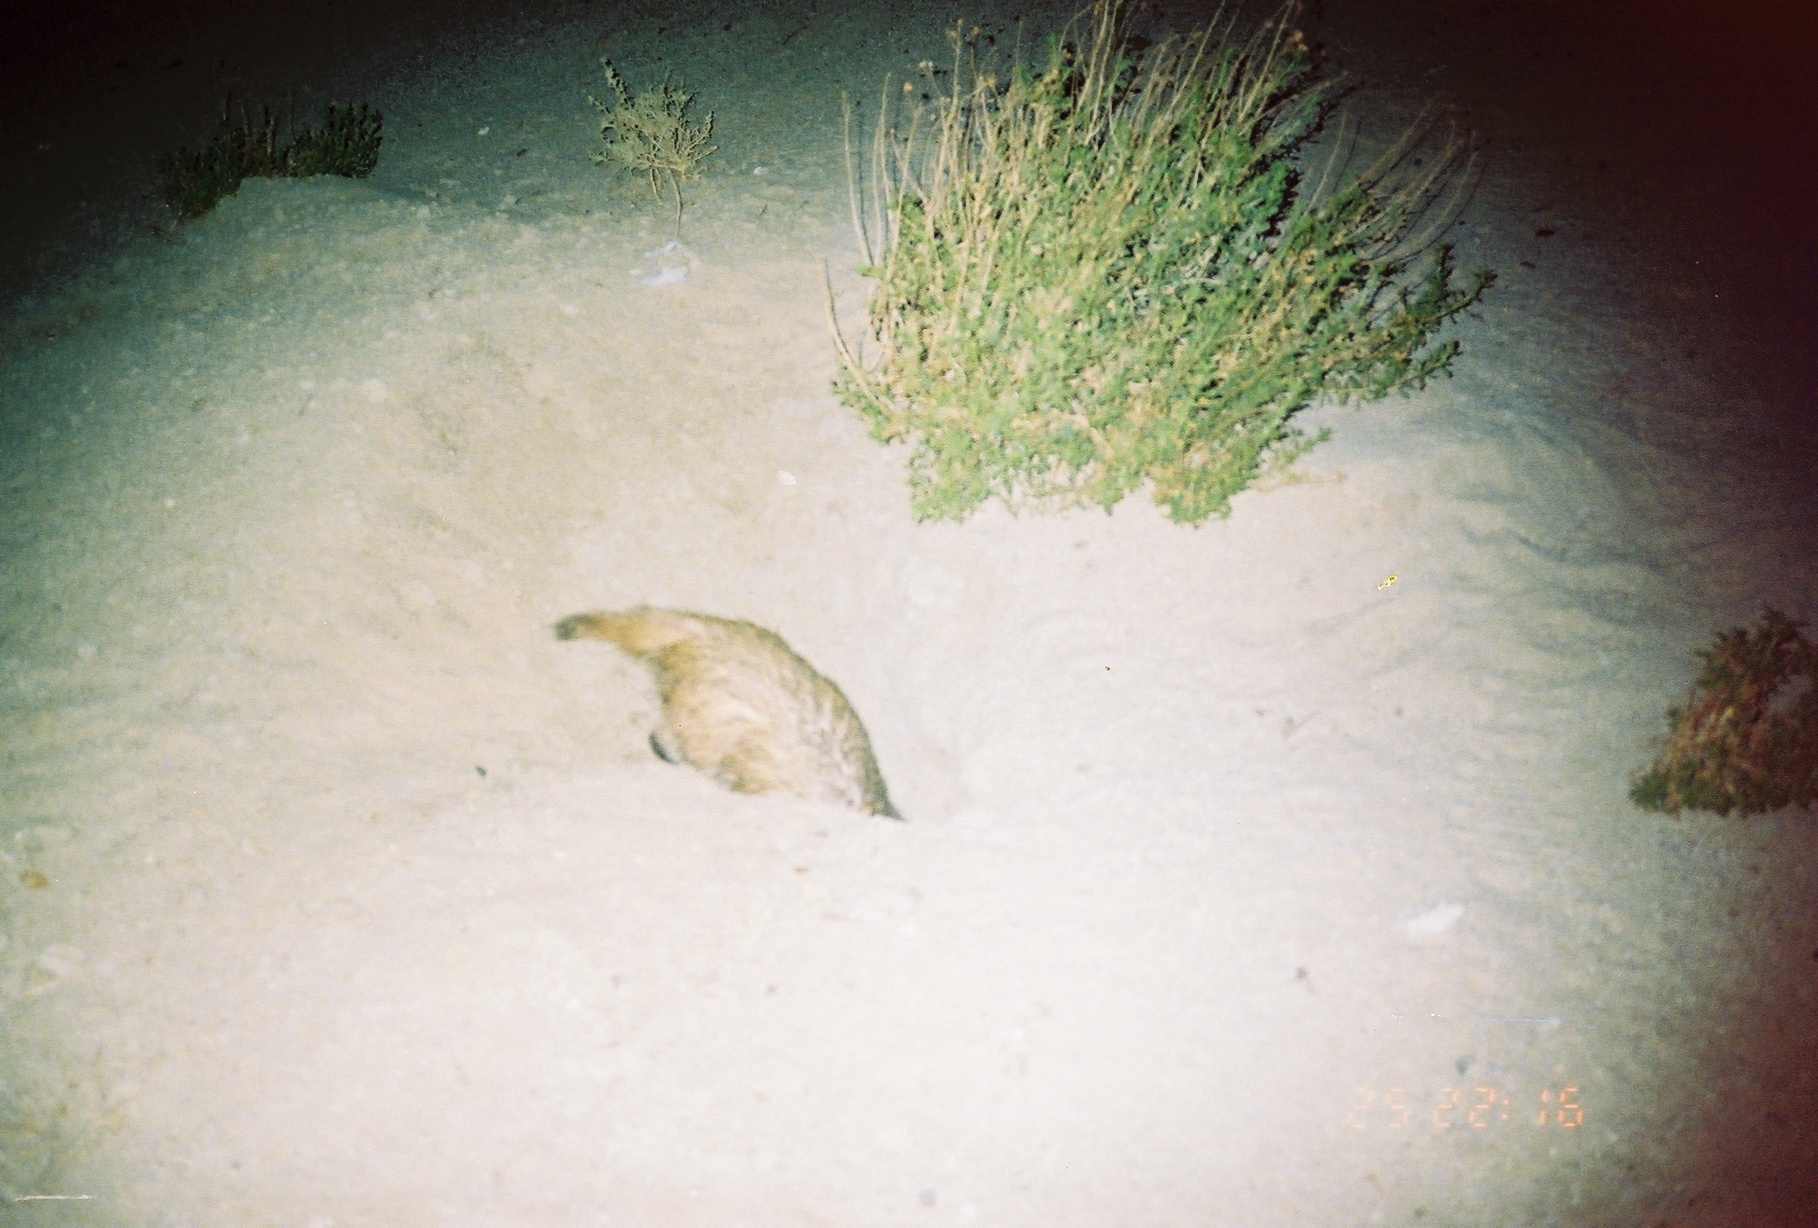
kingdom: Animalia
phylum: Chordata
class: Mammalia
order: Carnivora
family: Mustelidae
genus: Taxidea
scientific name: Taxidea taxus
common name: American badger
